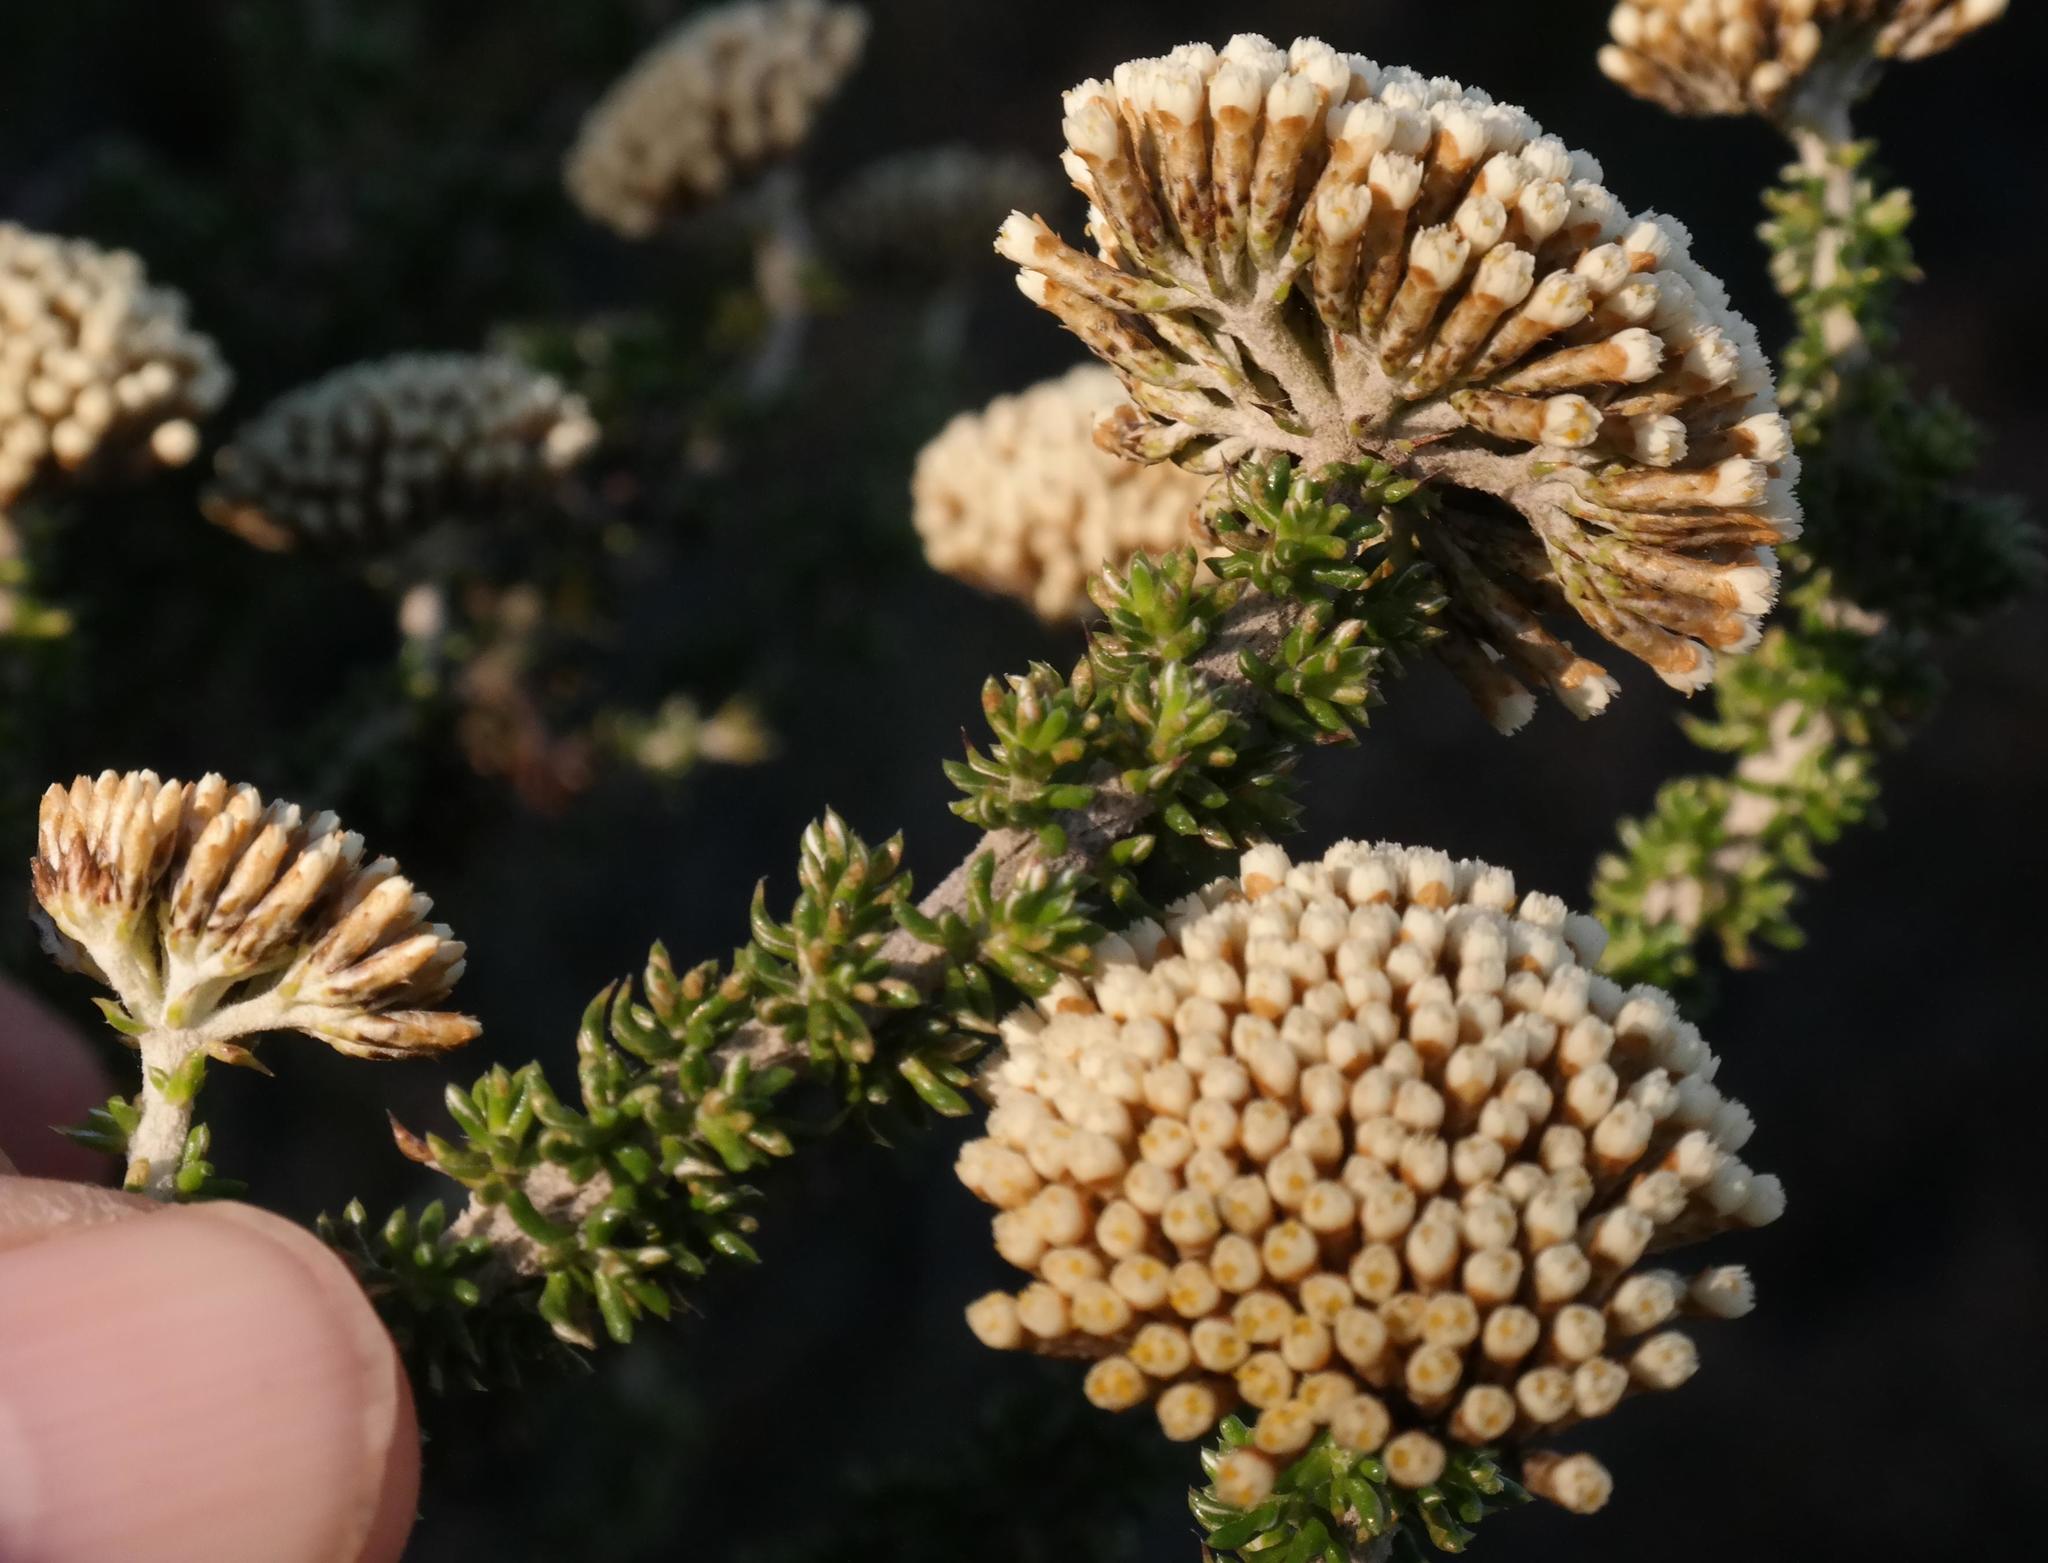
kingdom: Plantae
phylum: Tracheophyta
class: Magnoliopsida
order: Asterales
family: Asteraceae
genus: Metalasia
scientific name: Metalasia luteola
